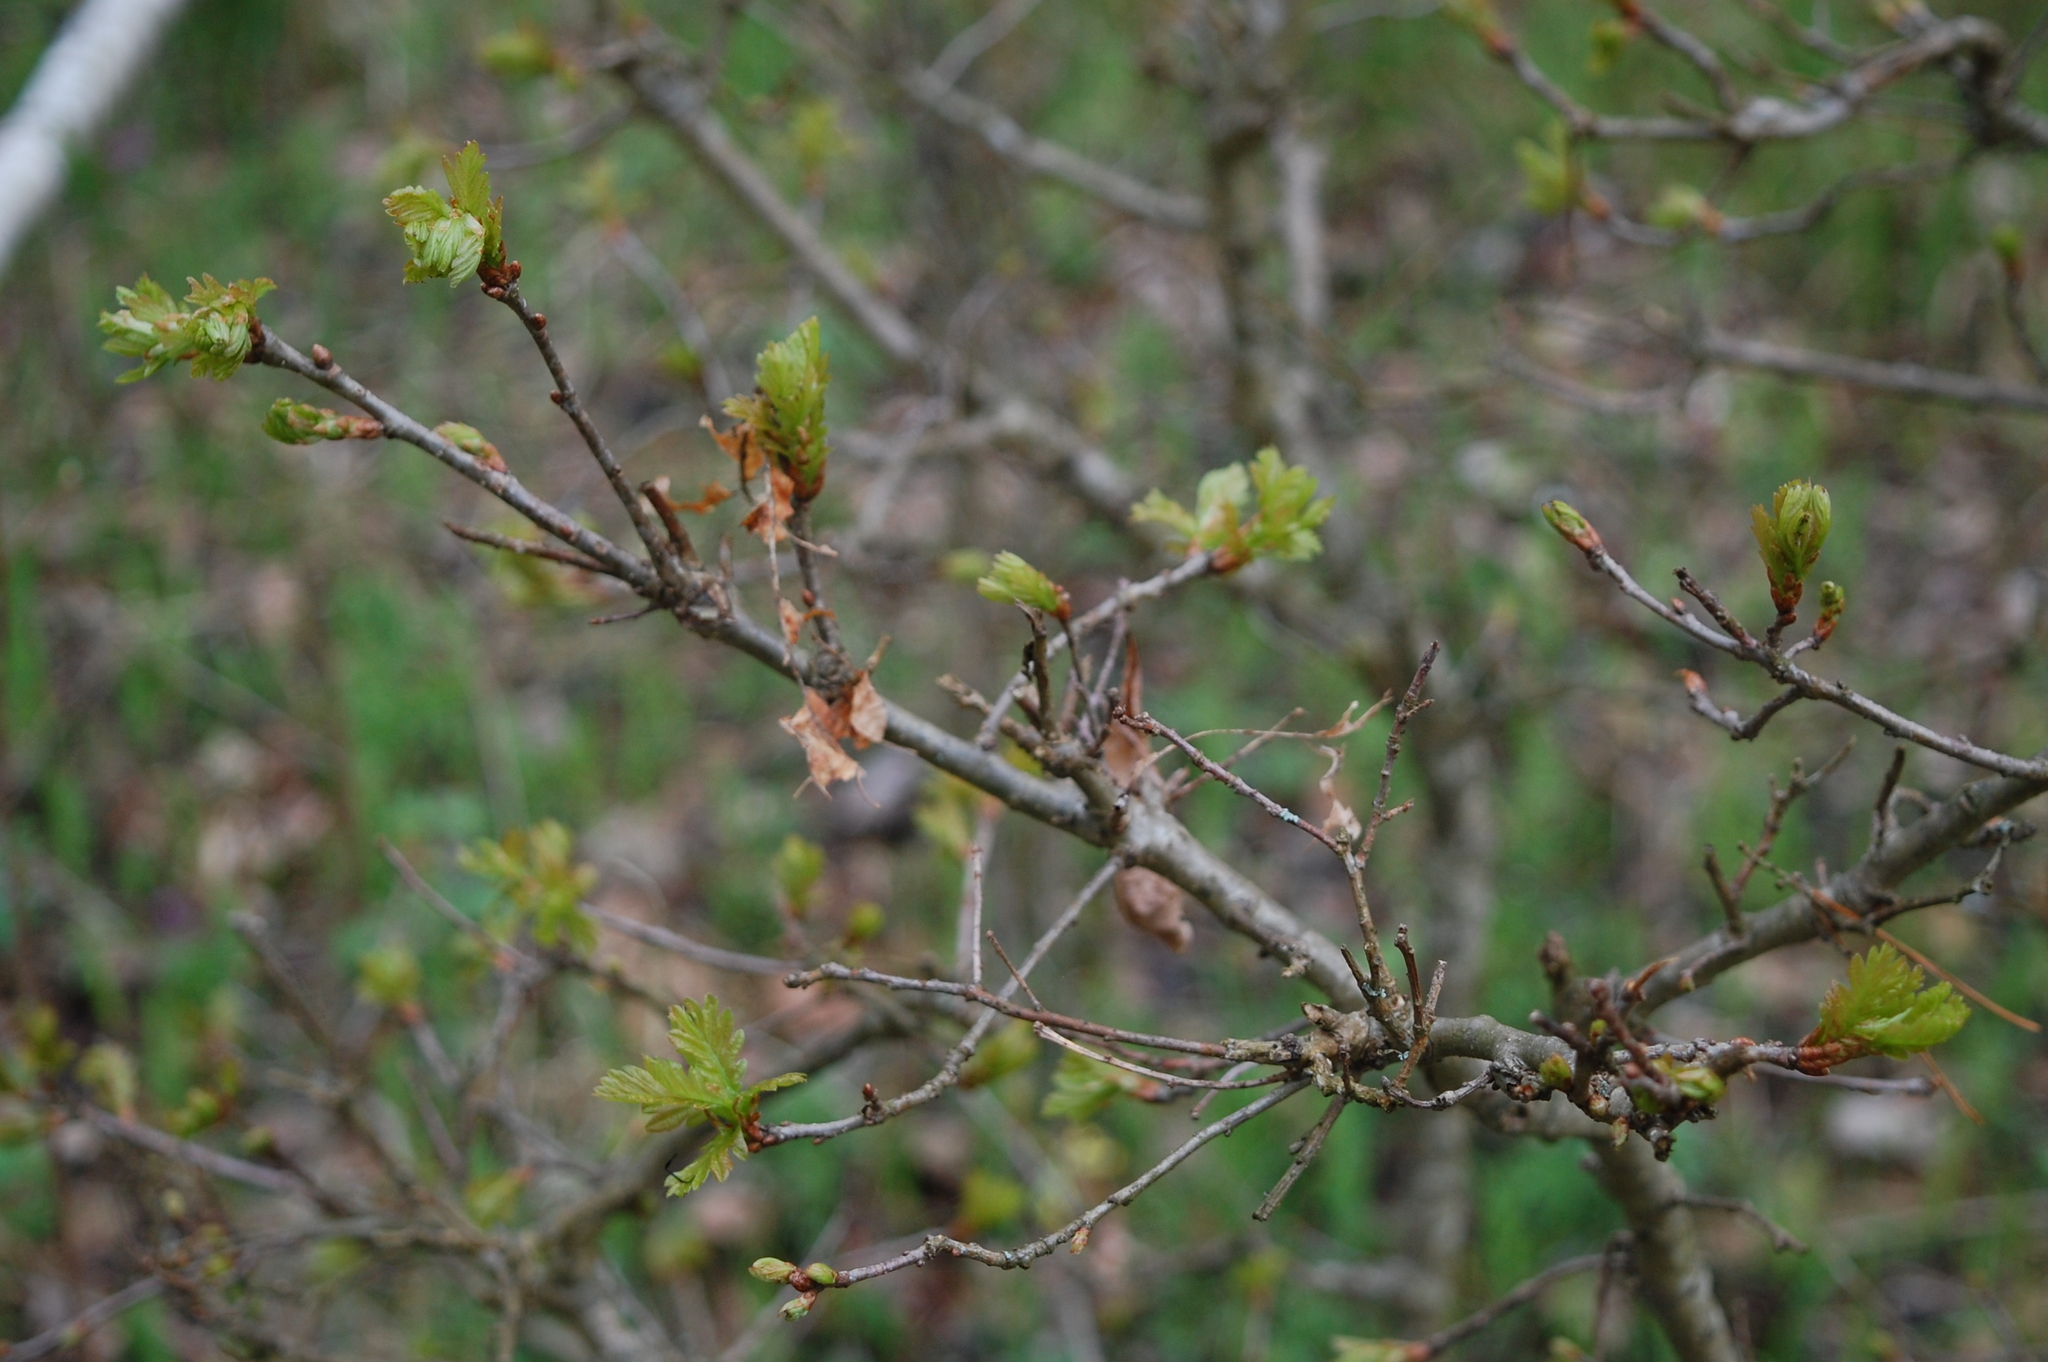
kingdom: Plantae
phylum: Tracheophyta
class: Magnoliopsida
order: Fagales
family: Fagaceae
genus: Quercus
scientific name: Quercus robur
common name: Pedunculate oak
